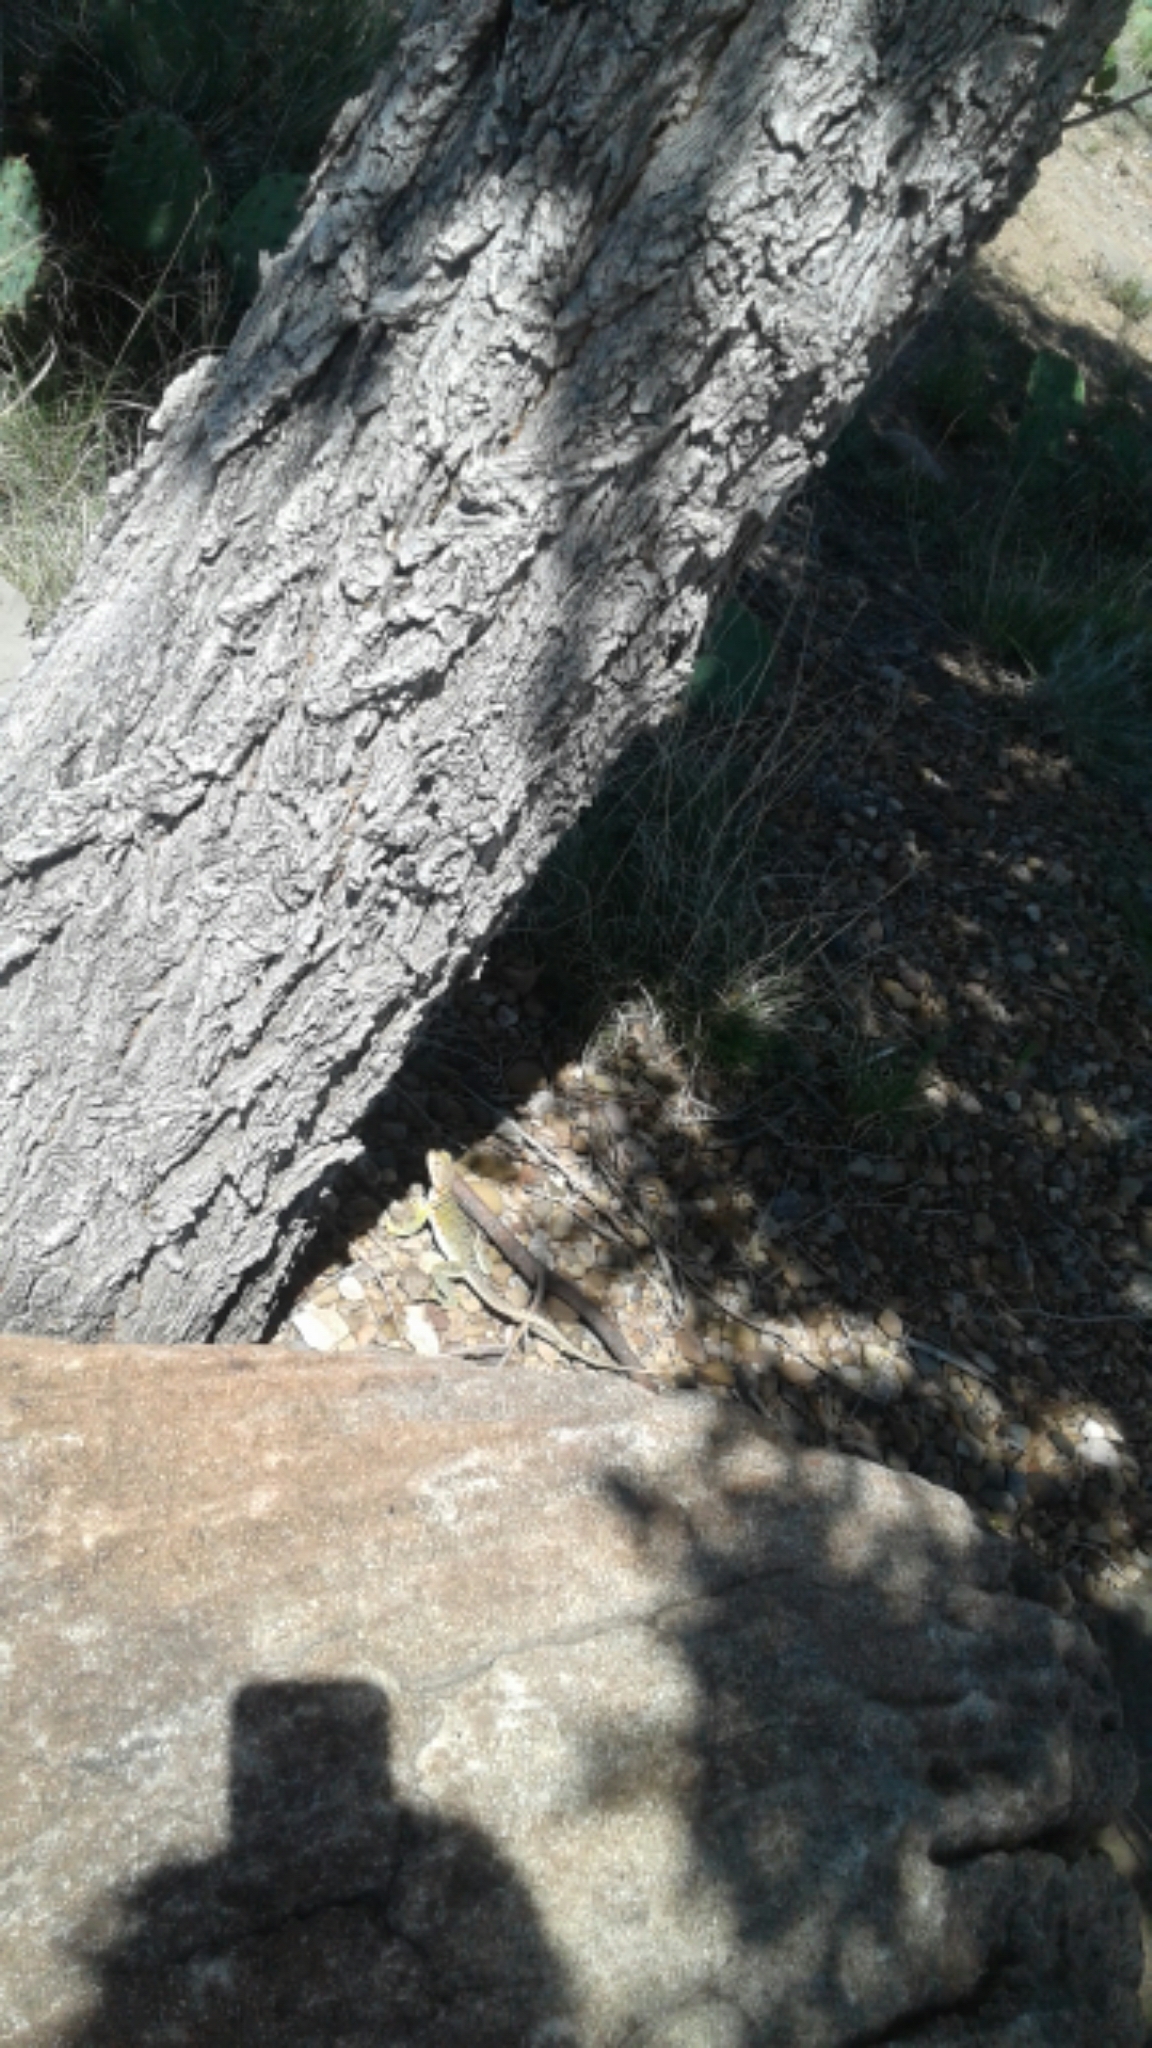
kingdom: Animalia
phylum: Chordata
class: Squamata
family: Crotaphytidae
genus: Crotaphytus
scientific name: Crotaphytus collaris
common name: Collared lizard
